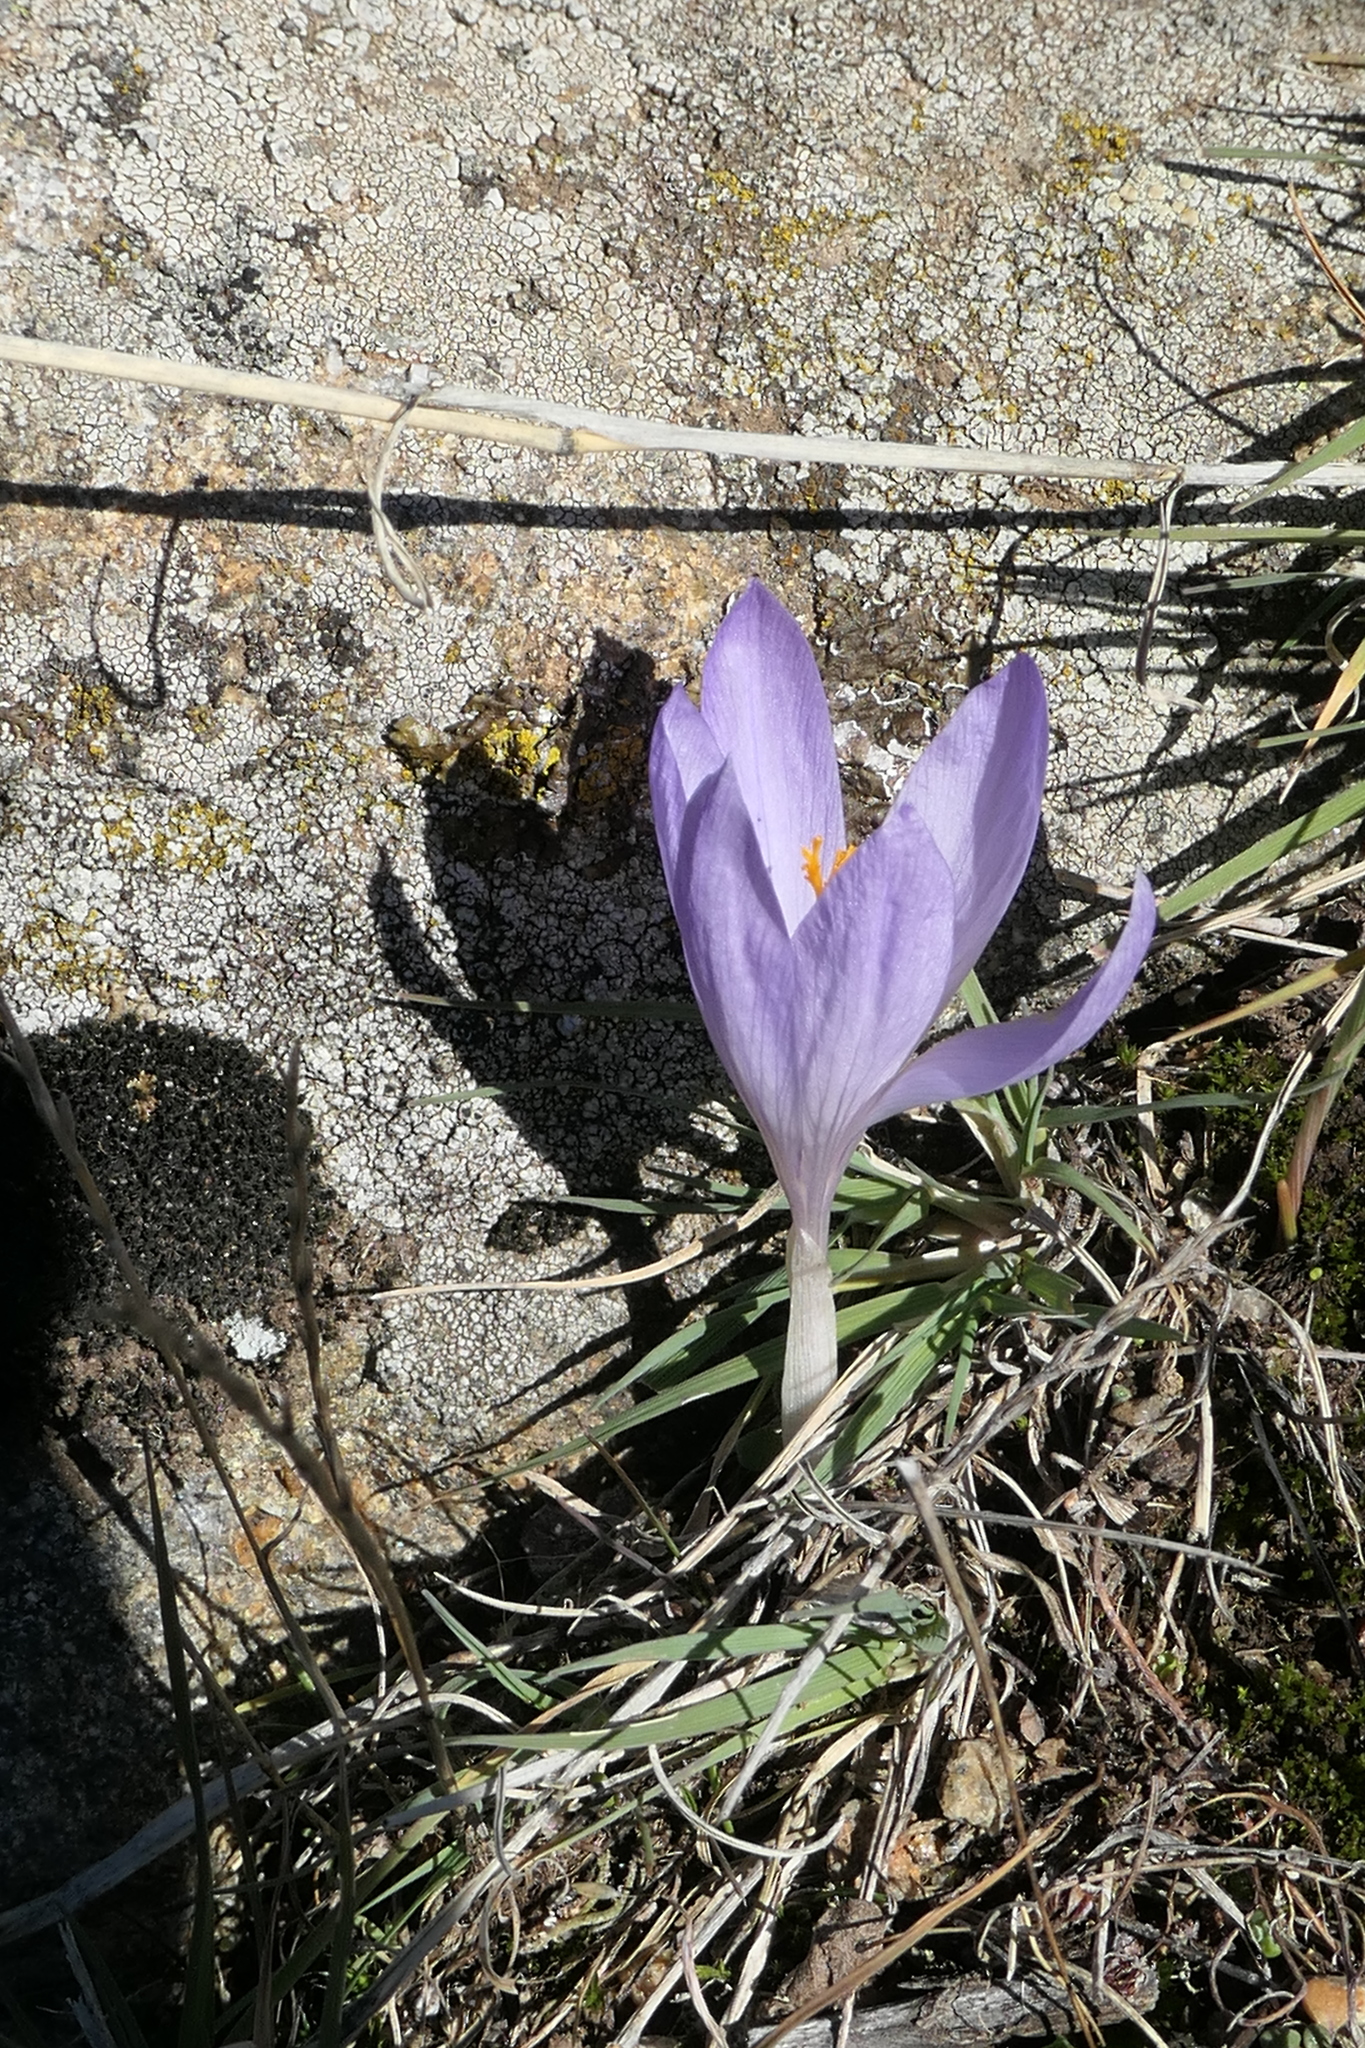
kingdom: Plantae
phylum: Tracheophyta
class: Liliopsida
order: Asparagales
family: Iridaceae
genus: Crocus
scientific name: Crocus serotinus
